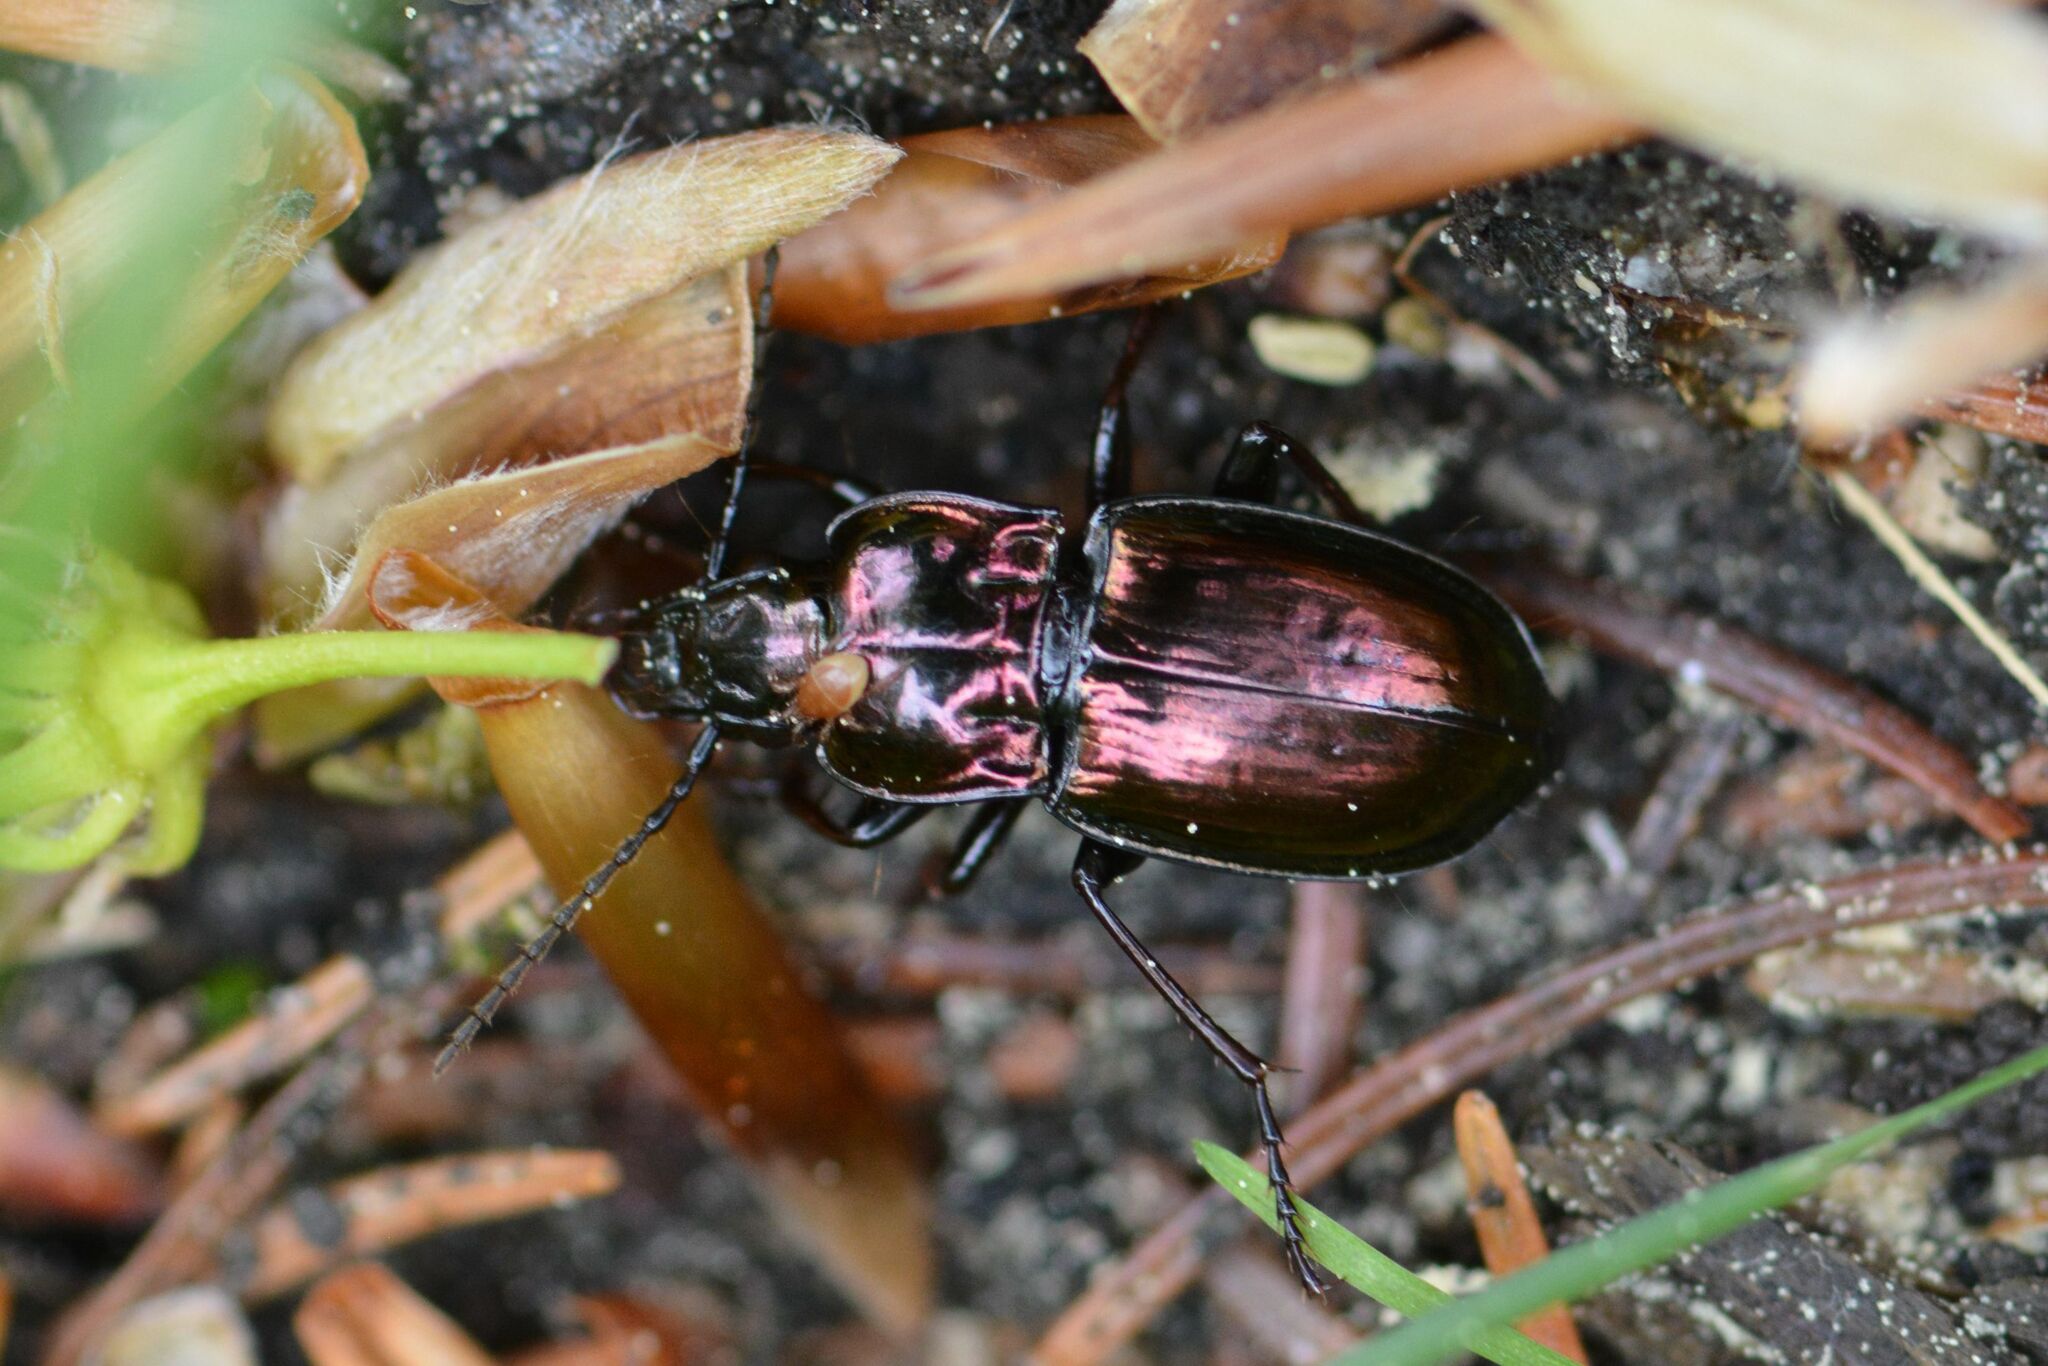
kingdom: Animalia
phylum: Arthropoda
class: Insecta
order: Coleoptera
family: Carabidae
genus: Pterostichus
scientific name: Pterostichus burmeisteri
